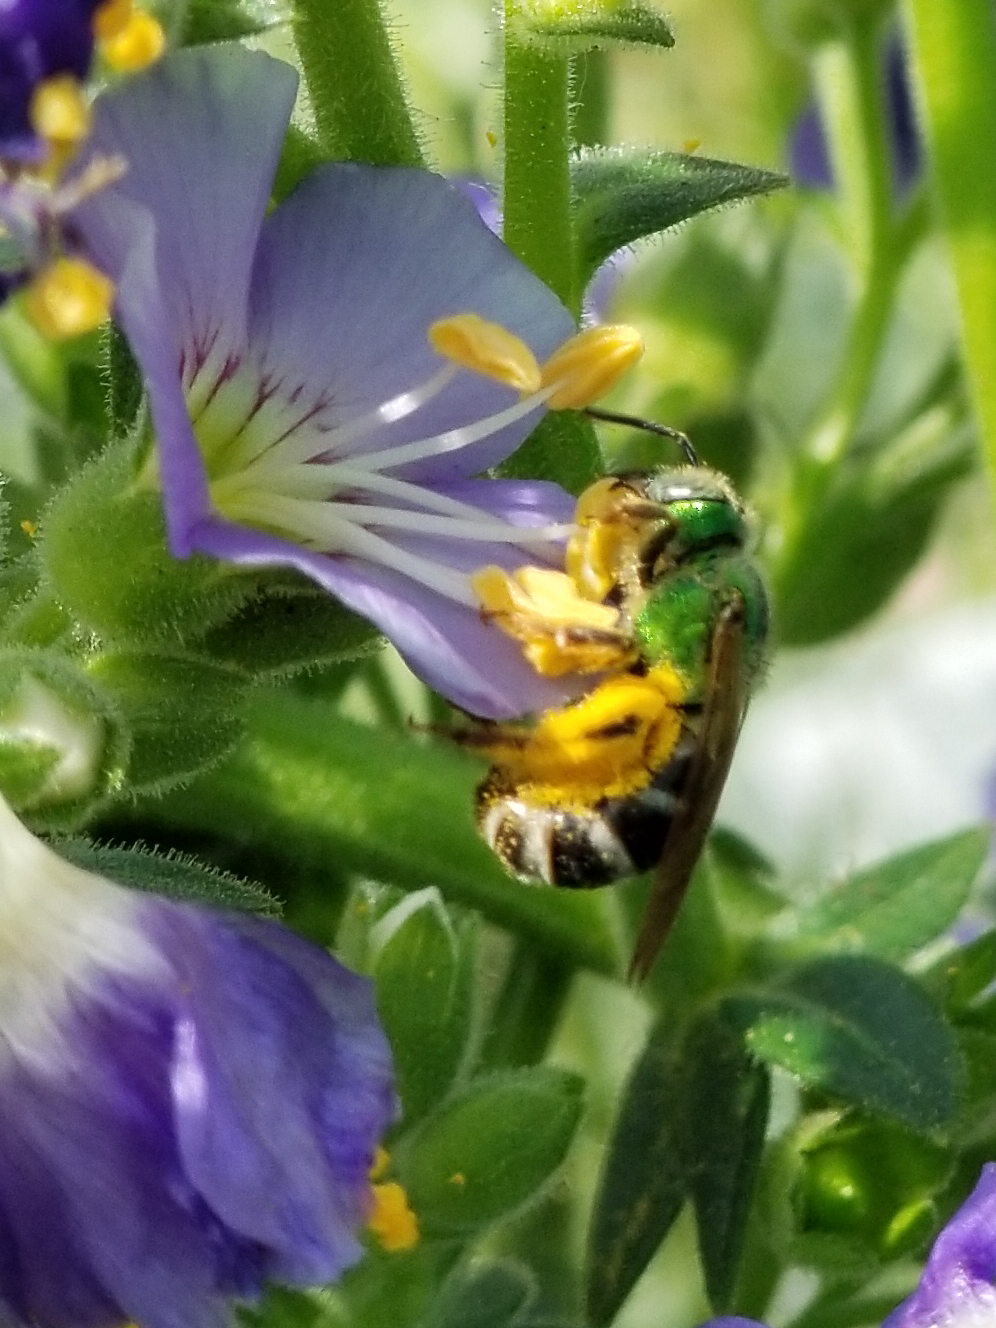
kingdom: Animalia
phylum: Arthropoda
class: Insecta
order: Hymenoptera
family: Halictidae
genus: Agapostemon
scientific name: Agapostemon virescens
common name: Bicolored striped sweat bee
